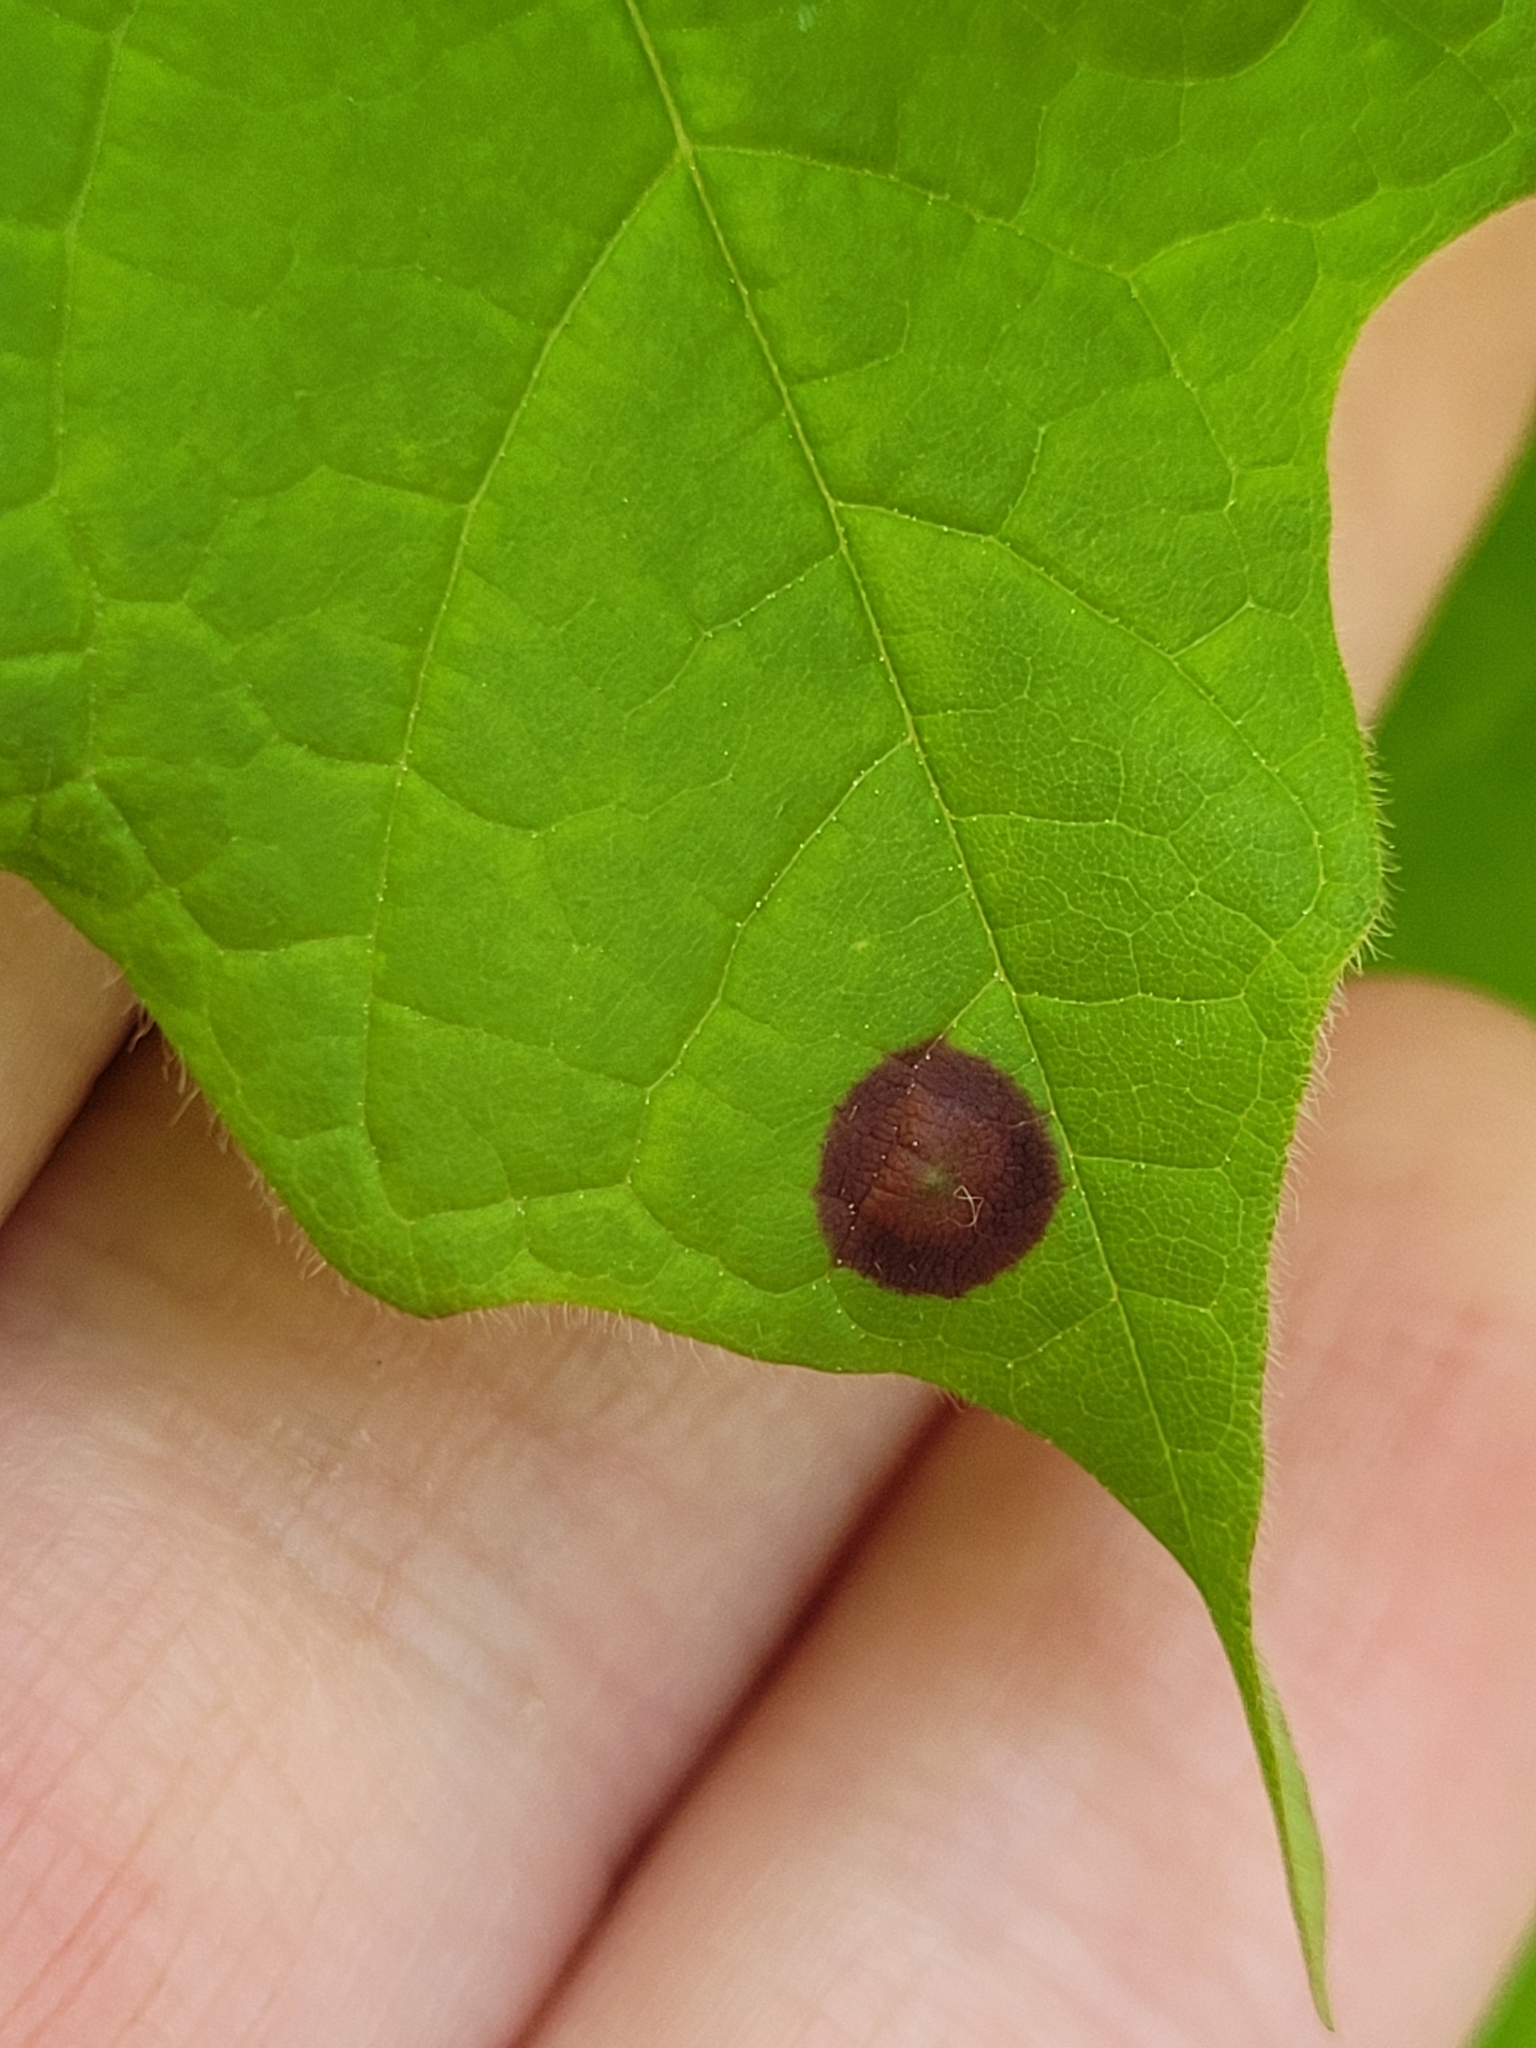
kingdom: Animalia
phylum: Arthropoda
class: Insecta
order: Diptera
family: Cecidomyiidae
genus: Acericecis
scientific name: Acericecis ocellaris
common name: Ocellate gall midge
